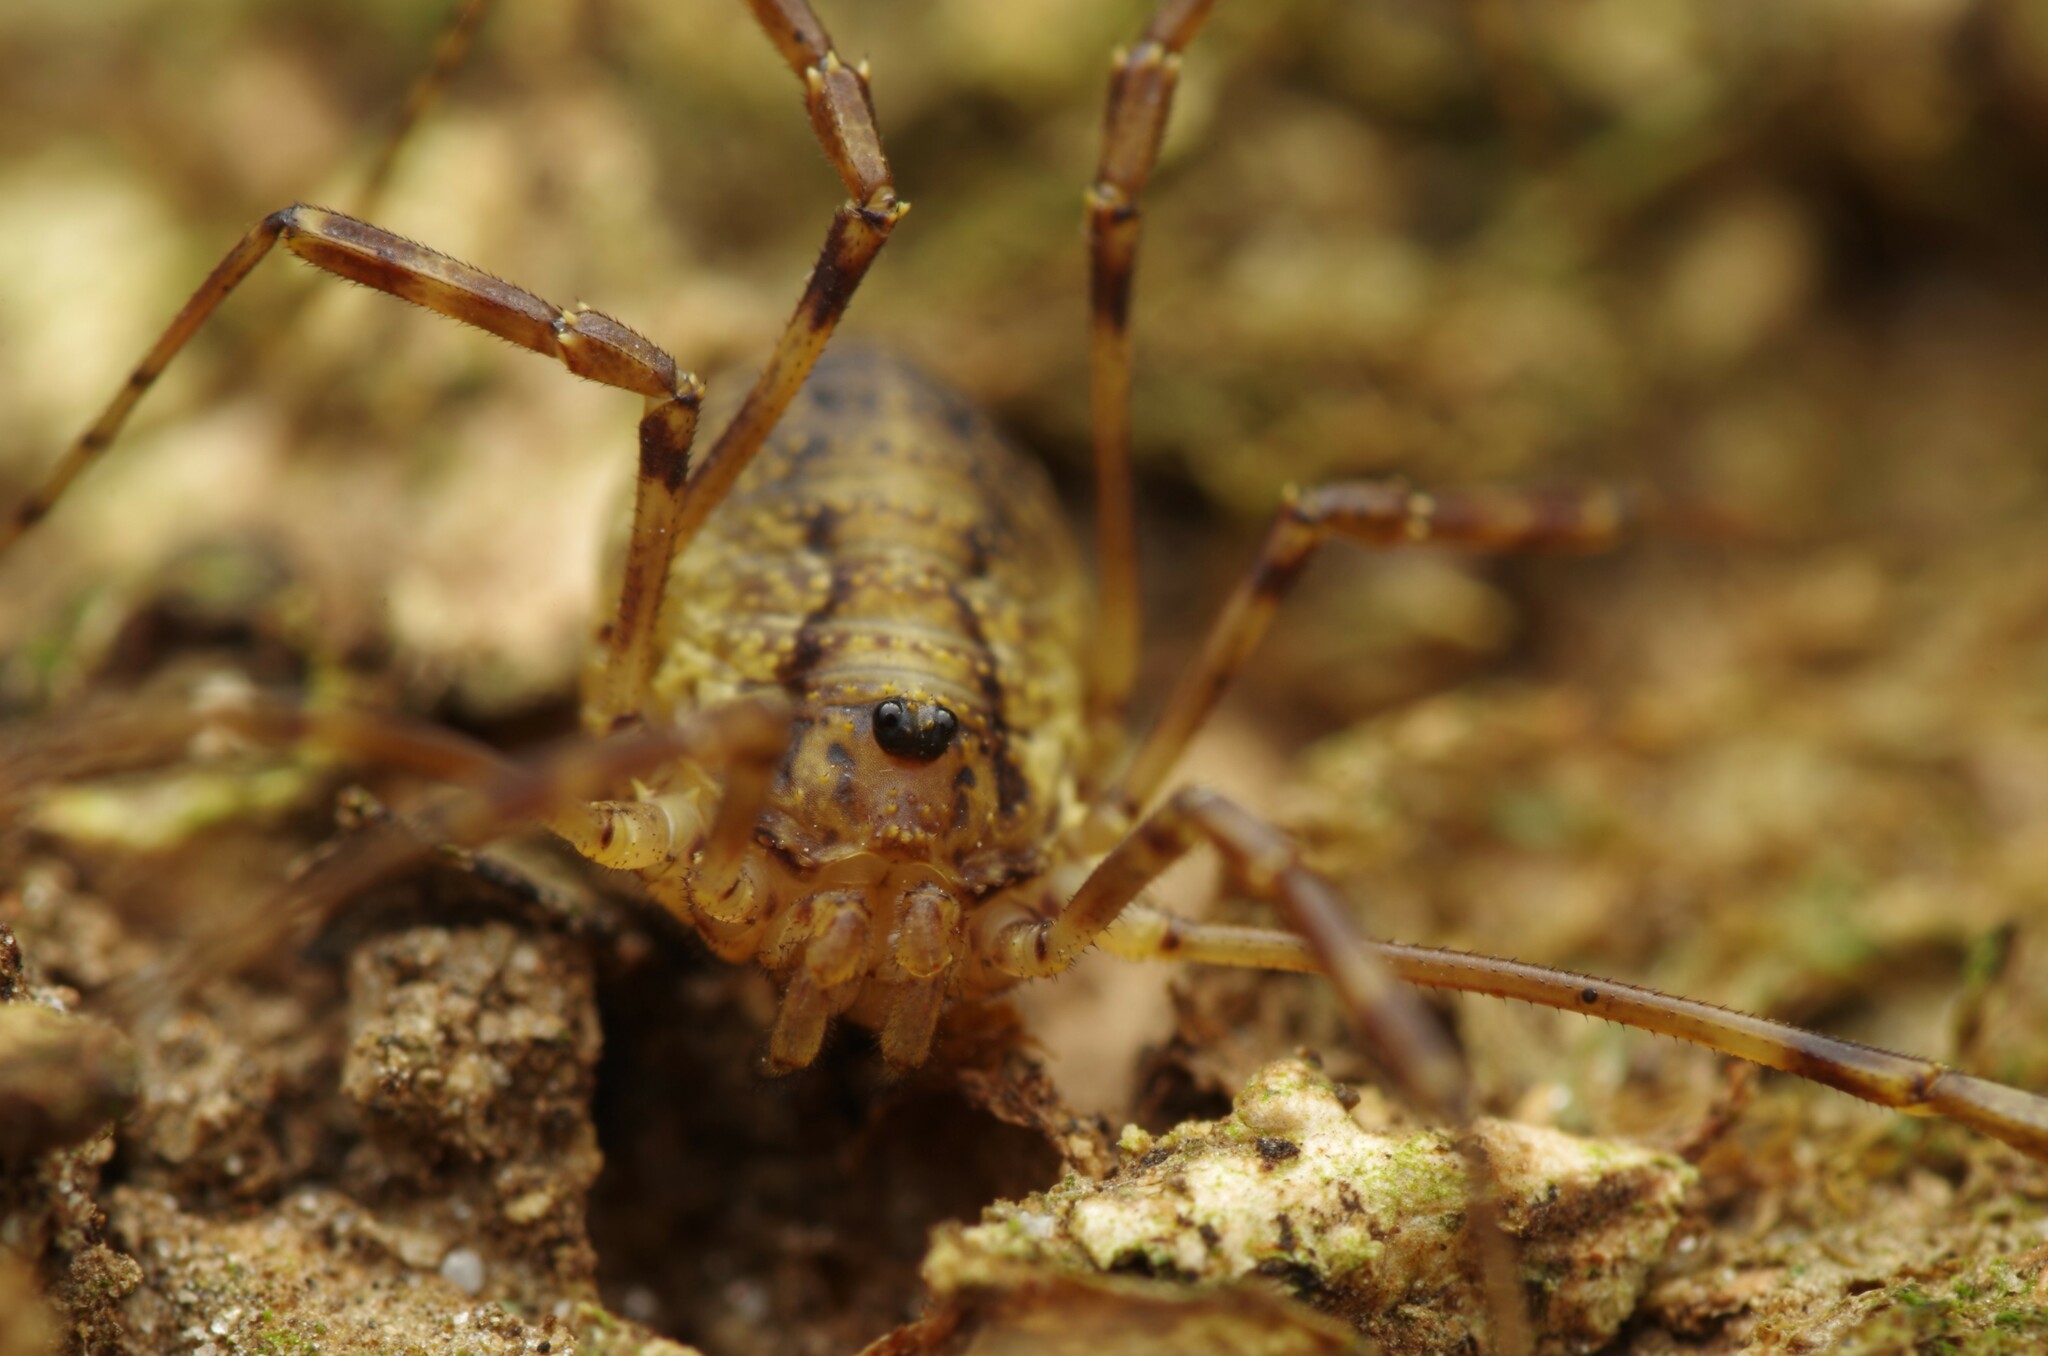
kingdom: Animalia
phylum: Arthropoda
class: Arachnida
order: Opiliones
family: Phalangiidae
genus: Oligolophus
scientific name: Oligolophus hansenii
